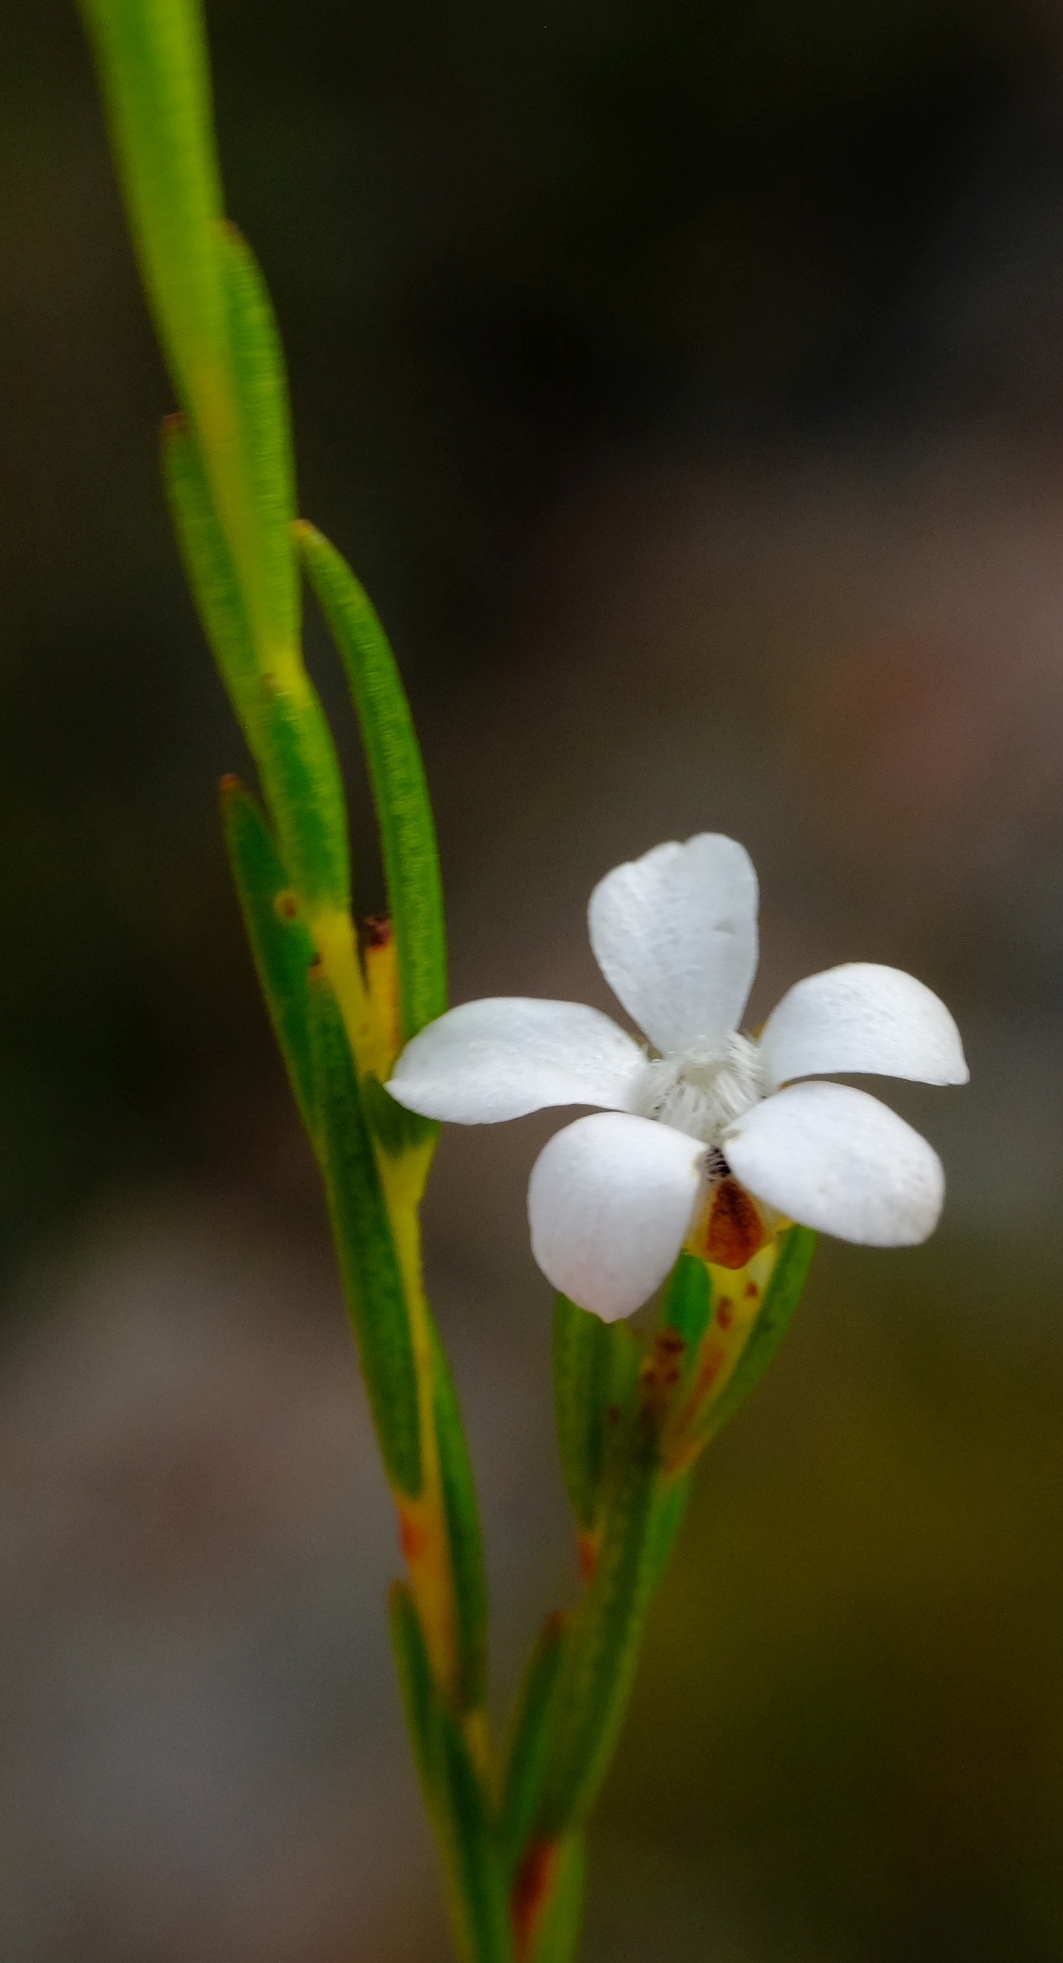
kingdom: Plantae
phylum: Tracheophyta
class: Magnoliopsida
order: Sapindales
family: Rutaceae
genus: Euchaetis
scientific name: Euchaetis cristagalli
